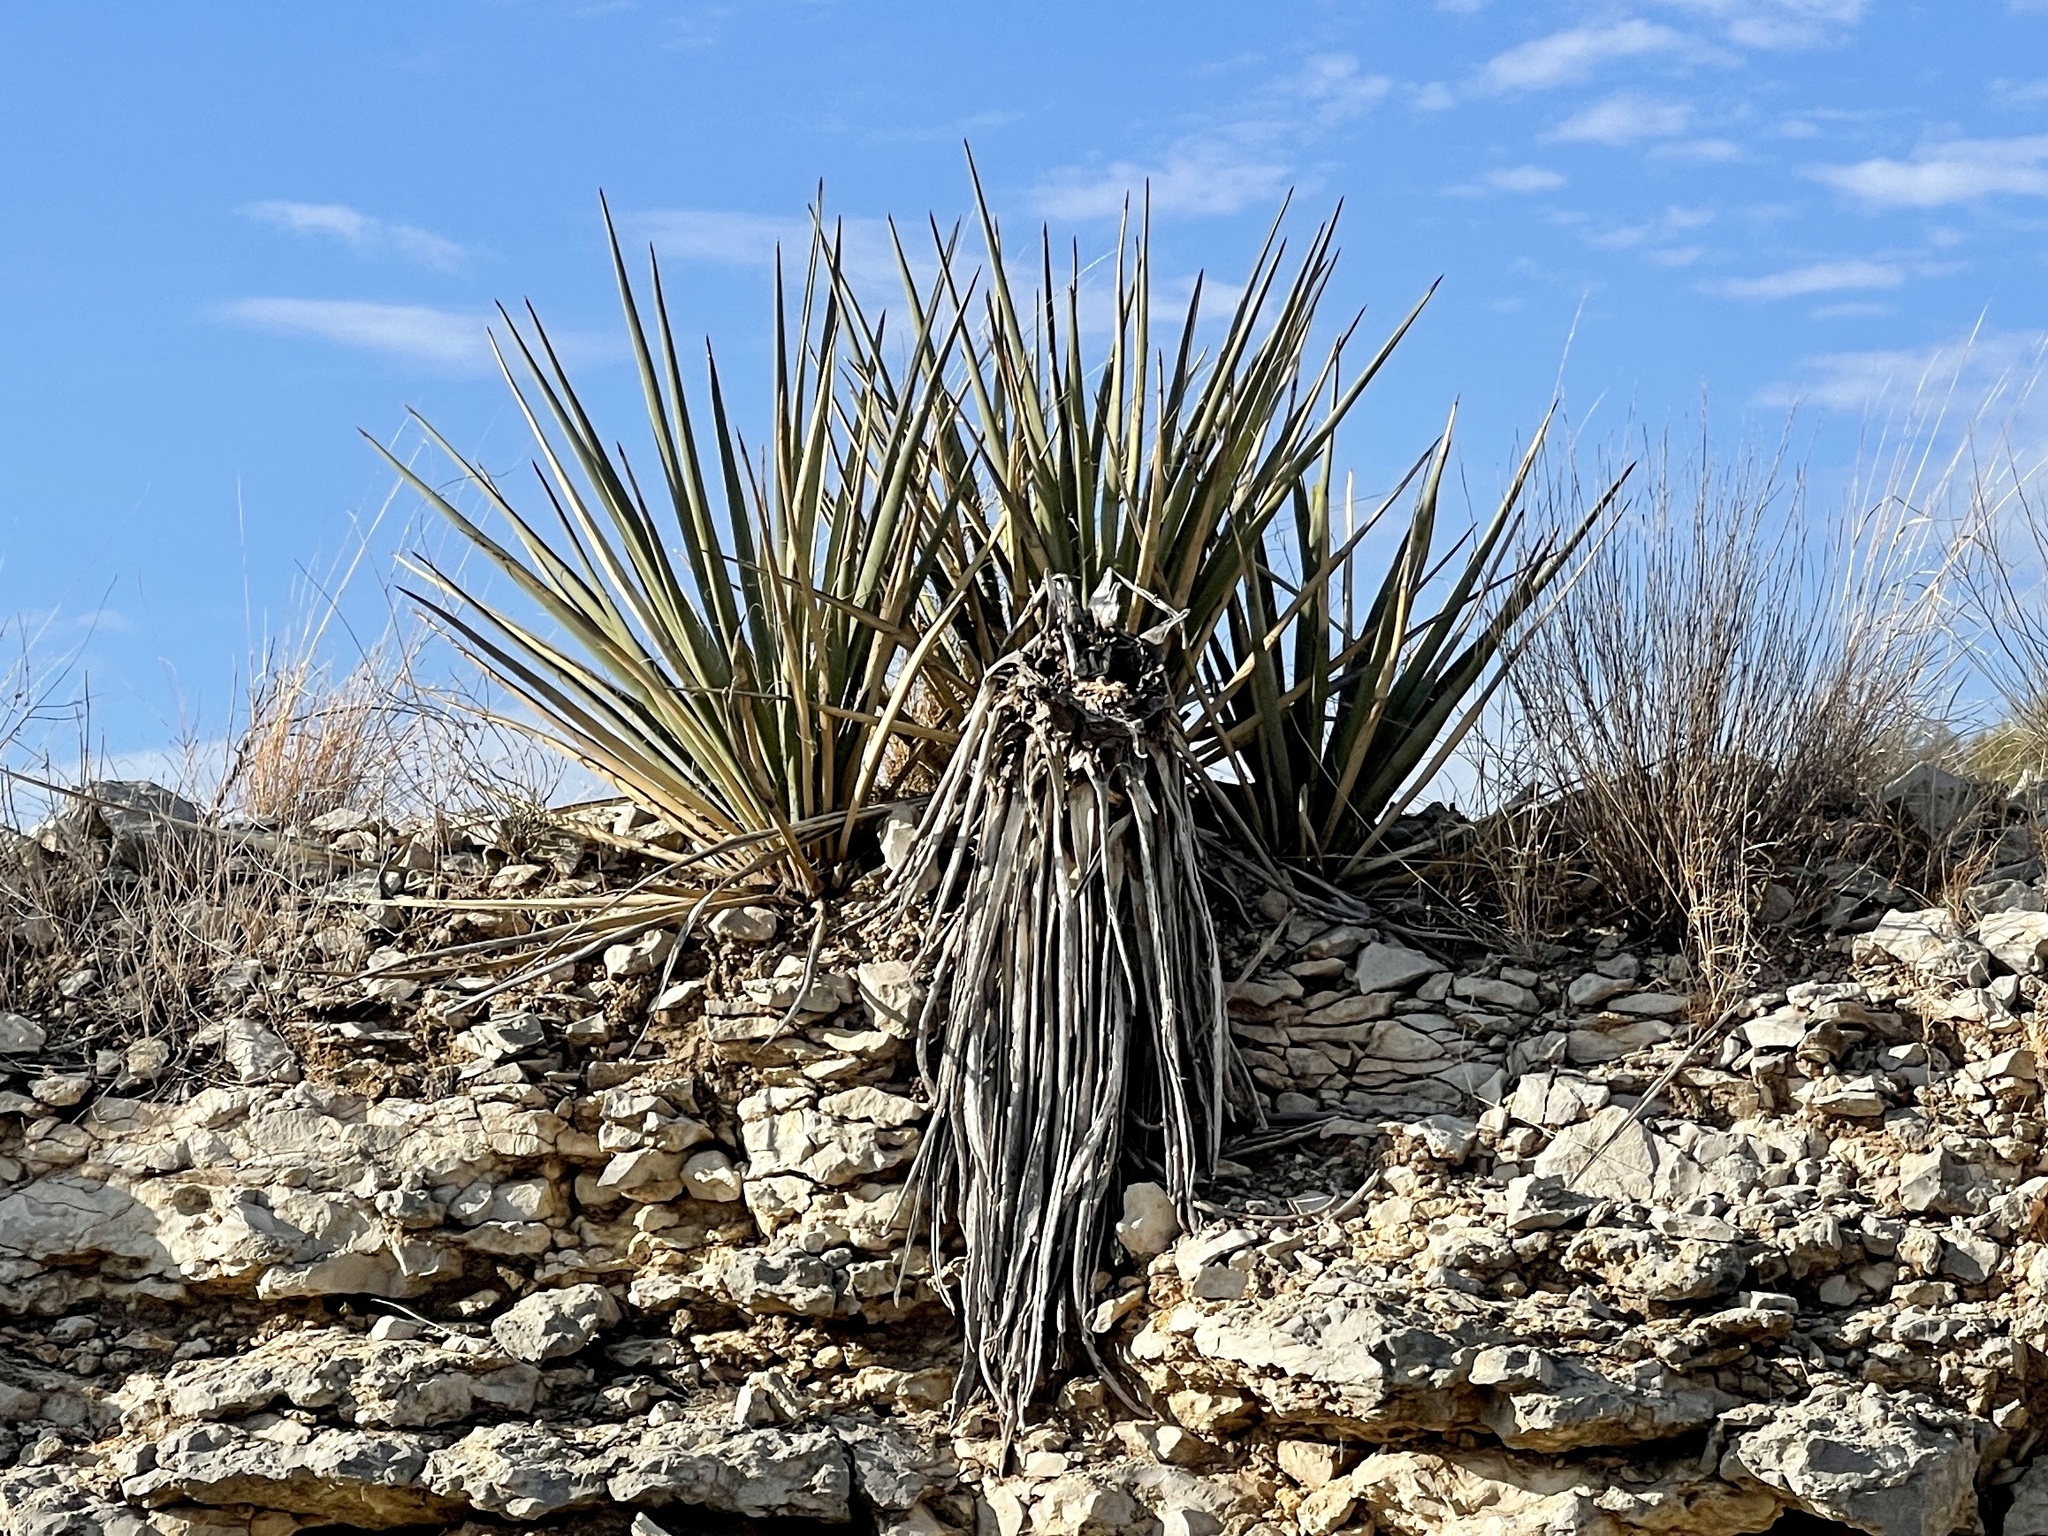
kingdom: Plantae
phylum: Tracheophyta
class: Liliopsida
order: Asparagales
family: Asparagaceae
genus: Yucca
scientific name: Yucca treculiana
